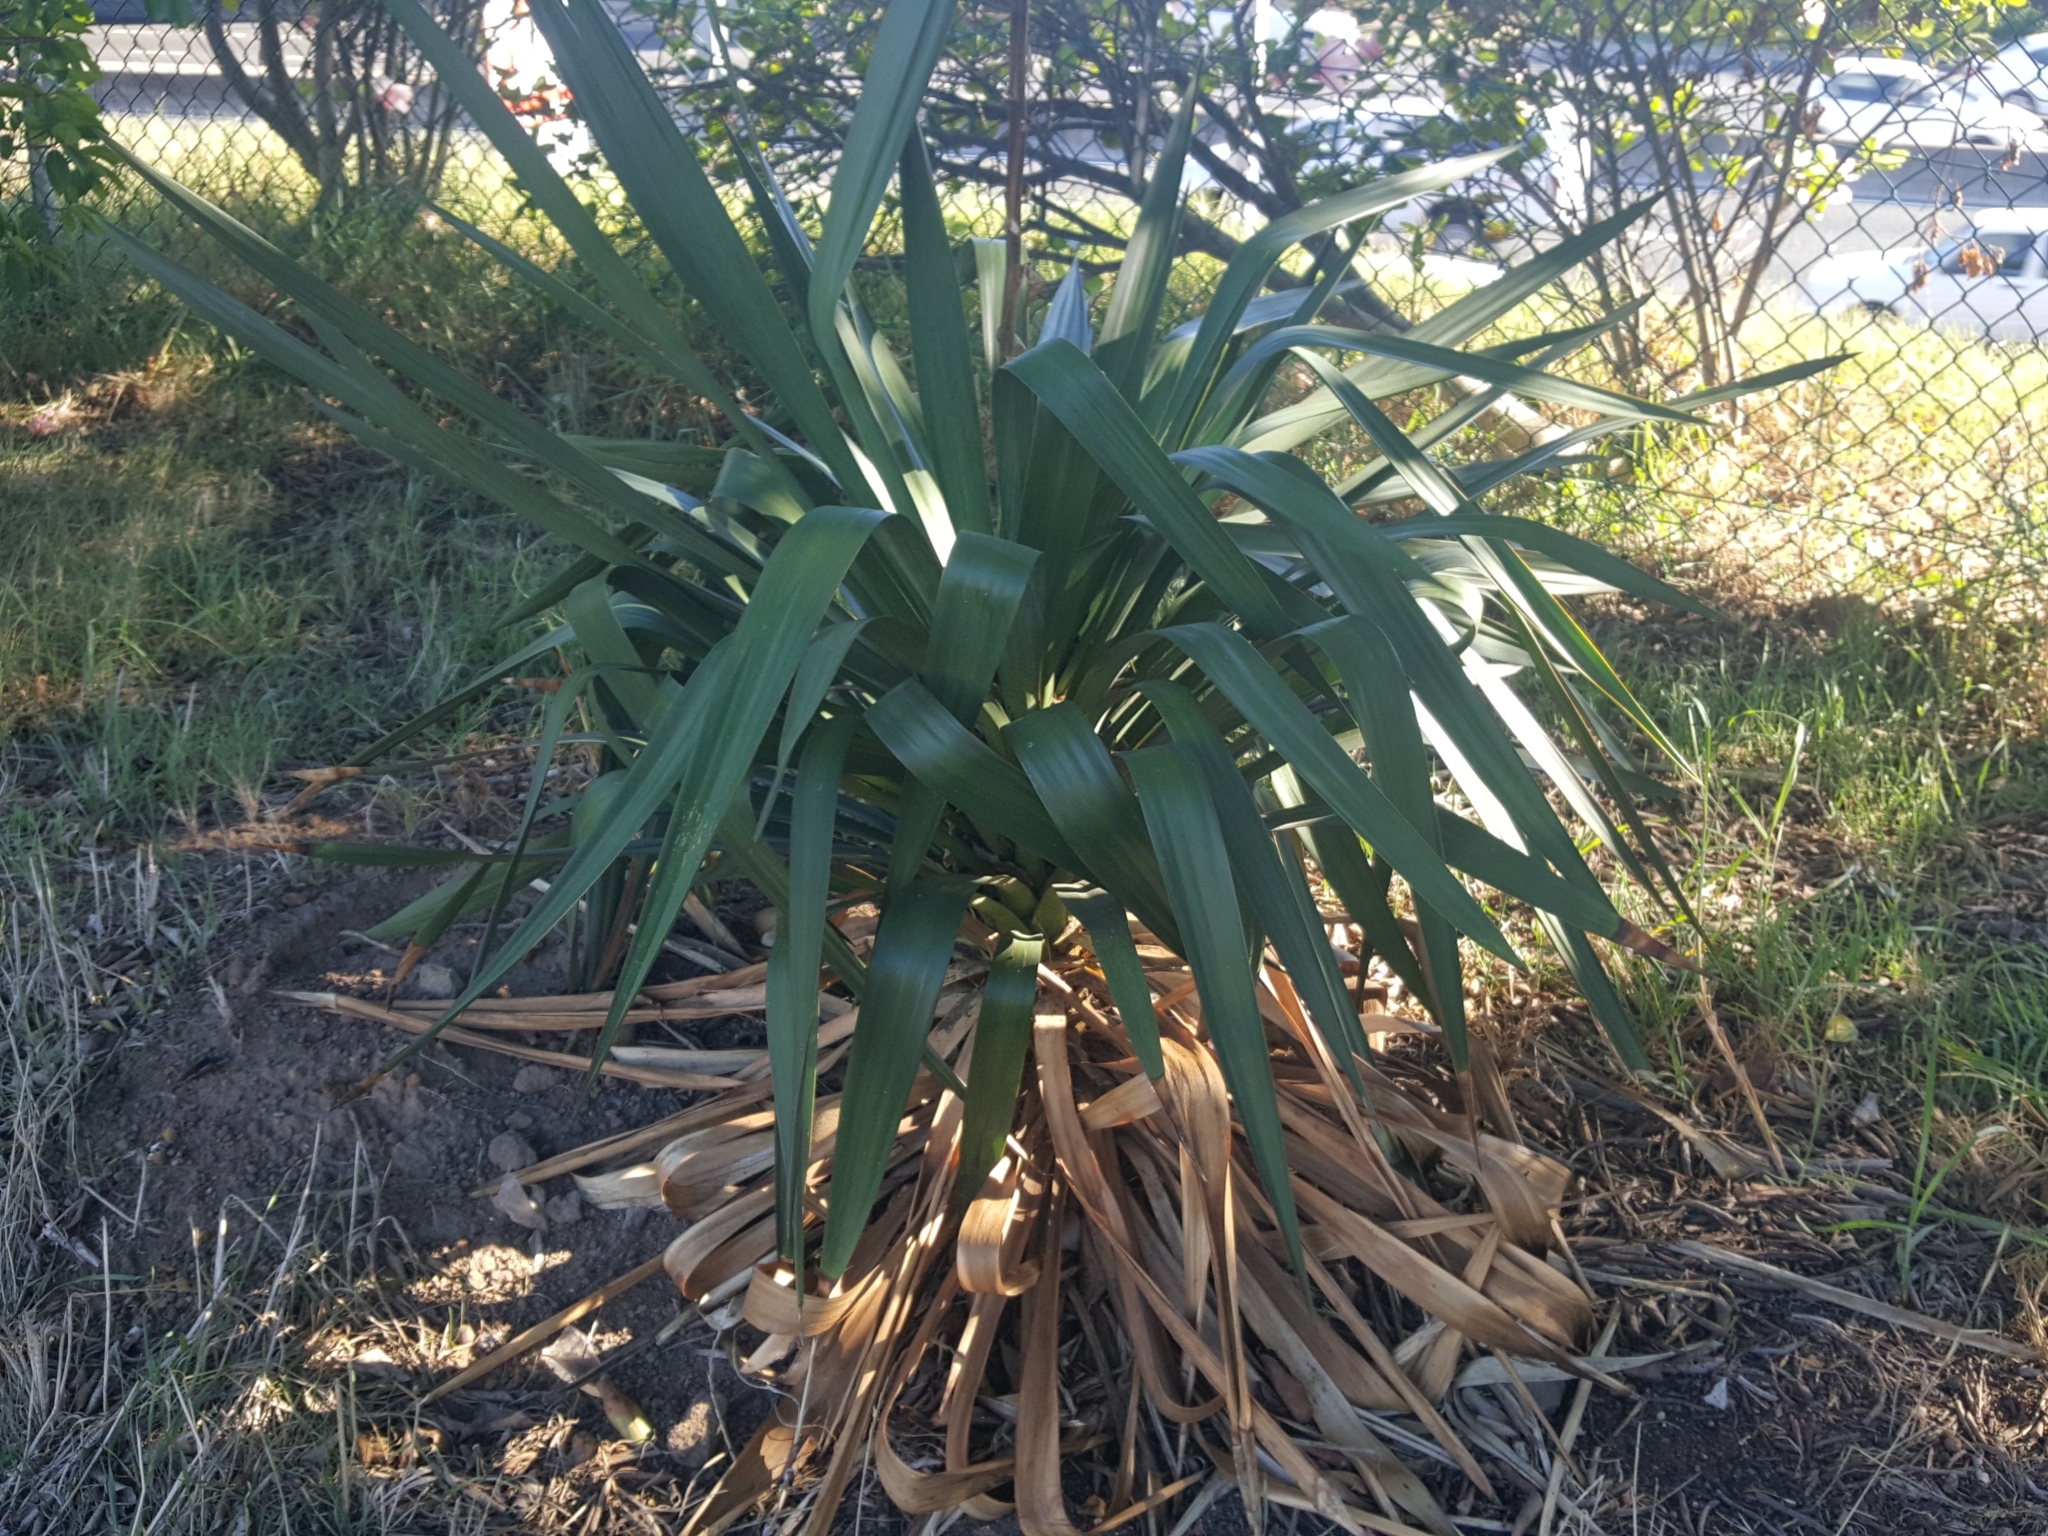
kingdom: Plantae
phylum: Tracheophyta
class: Liliopsida
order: Asparagales
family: Asparagaceae
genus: Yucca
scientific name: Yucca gloriosa
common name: Spanish-dagger
